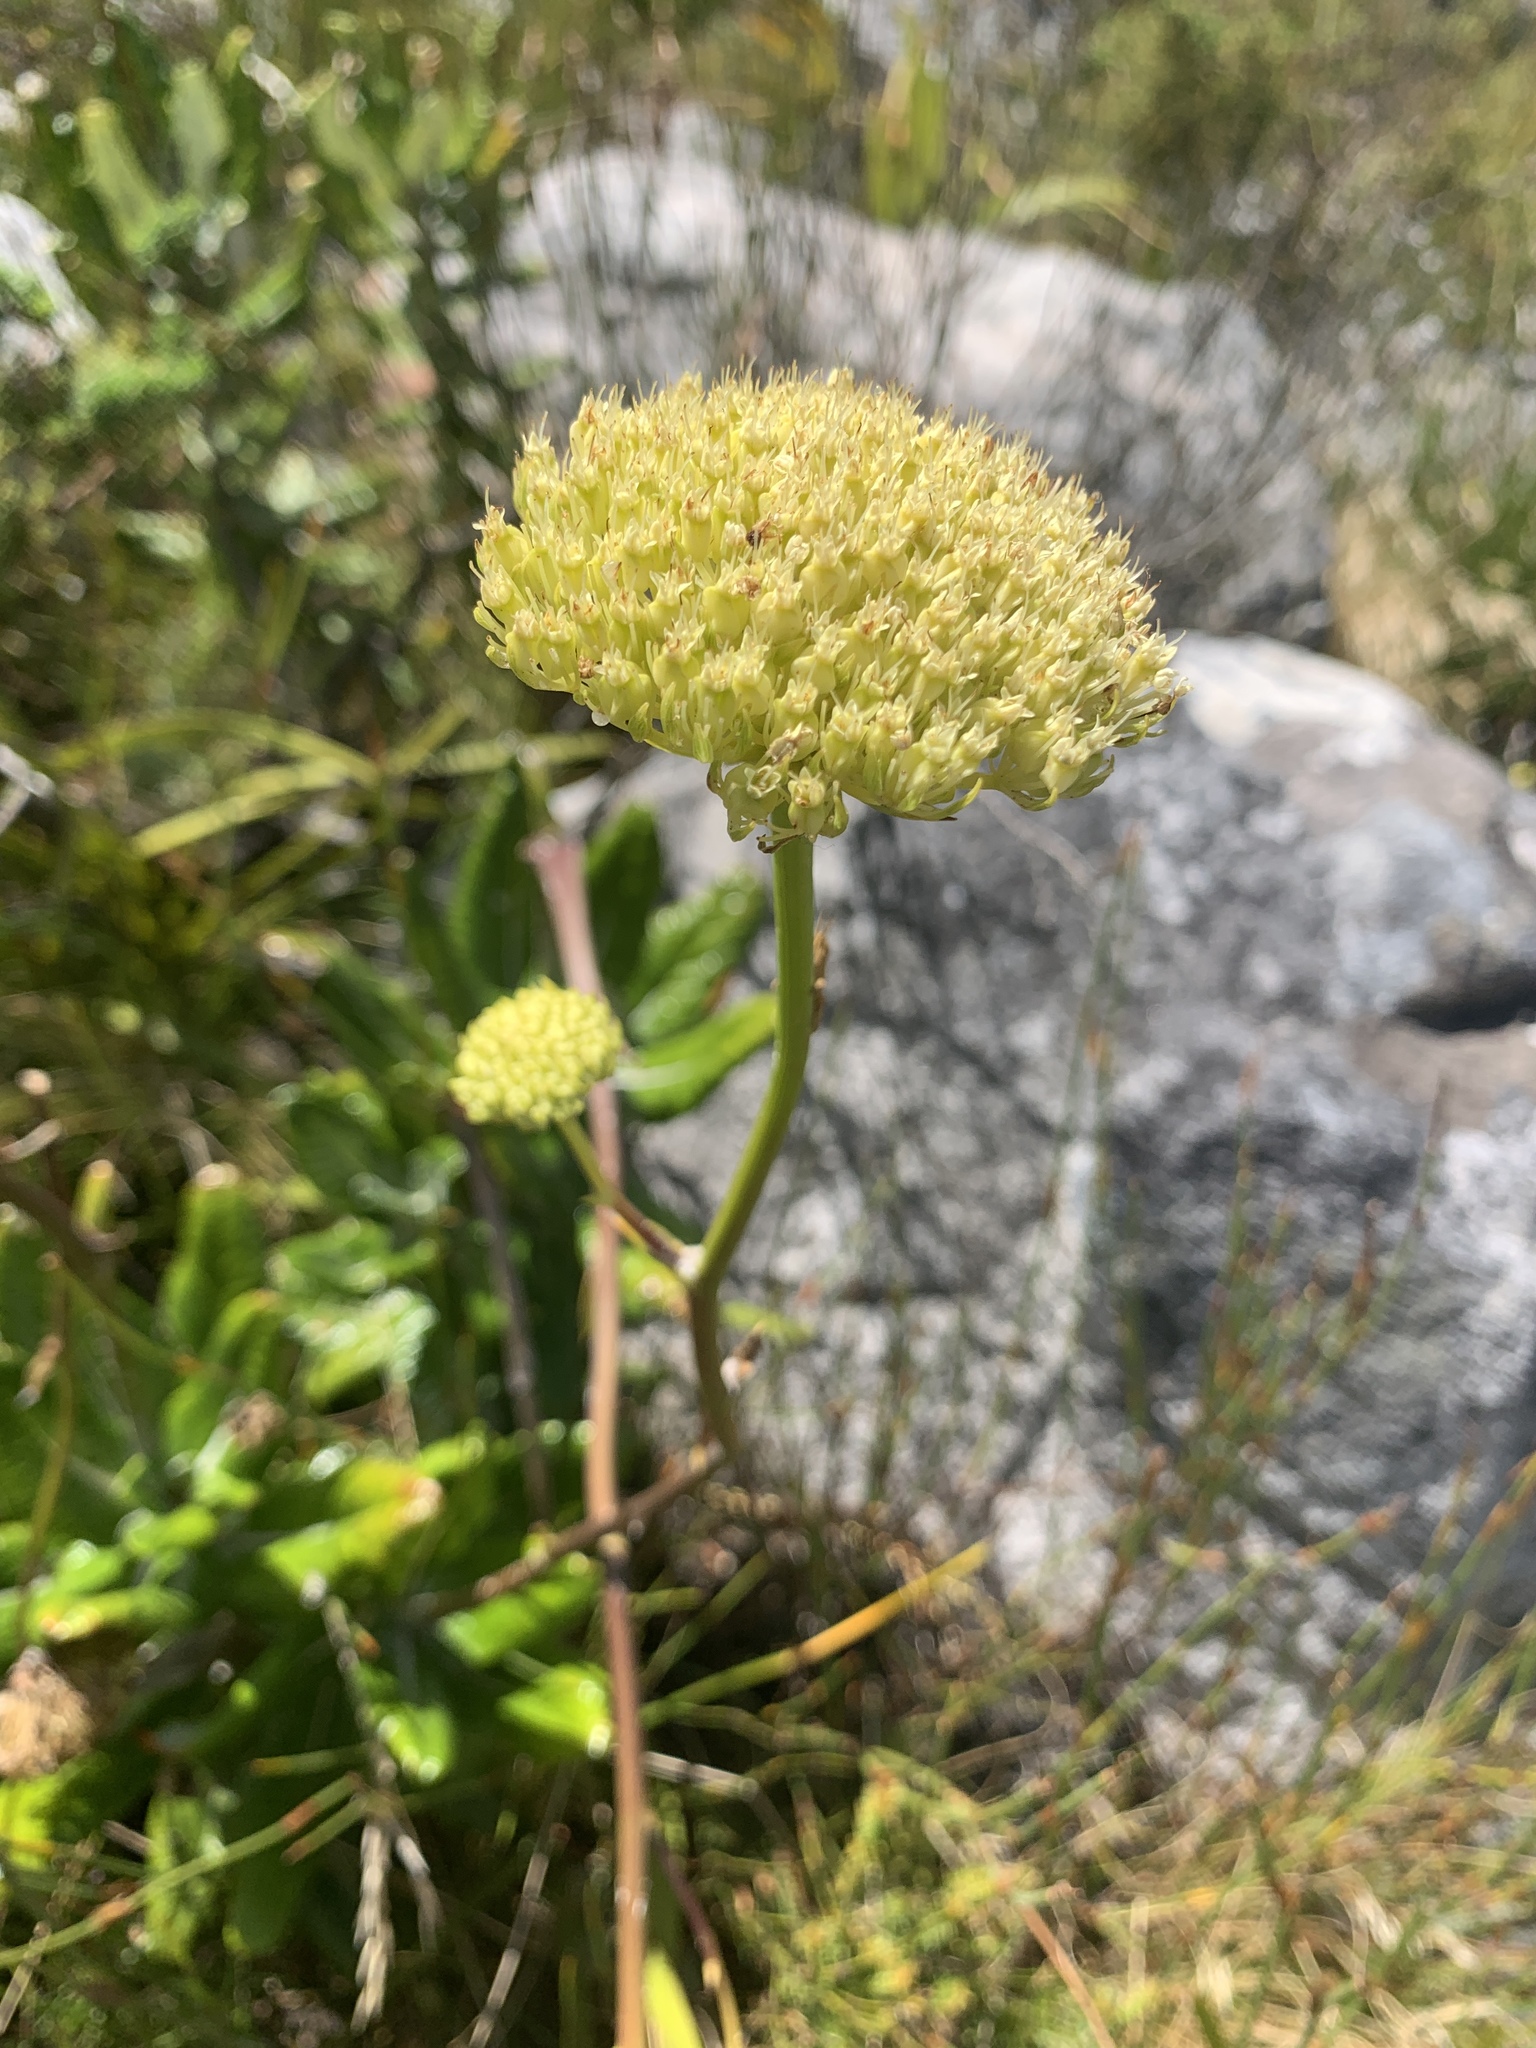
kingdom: Plantae
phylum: Tracheophyta
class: Magnoliopsida
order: Apiales
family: Apiaceae
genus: Hermas
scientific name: Hermas villosa
